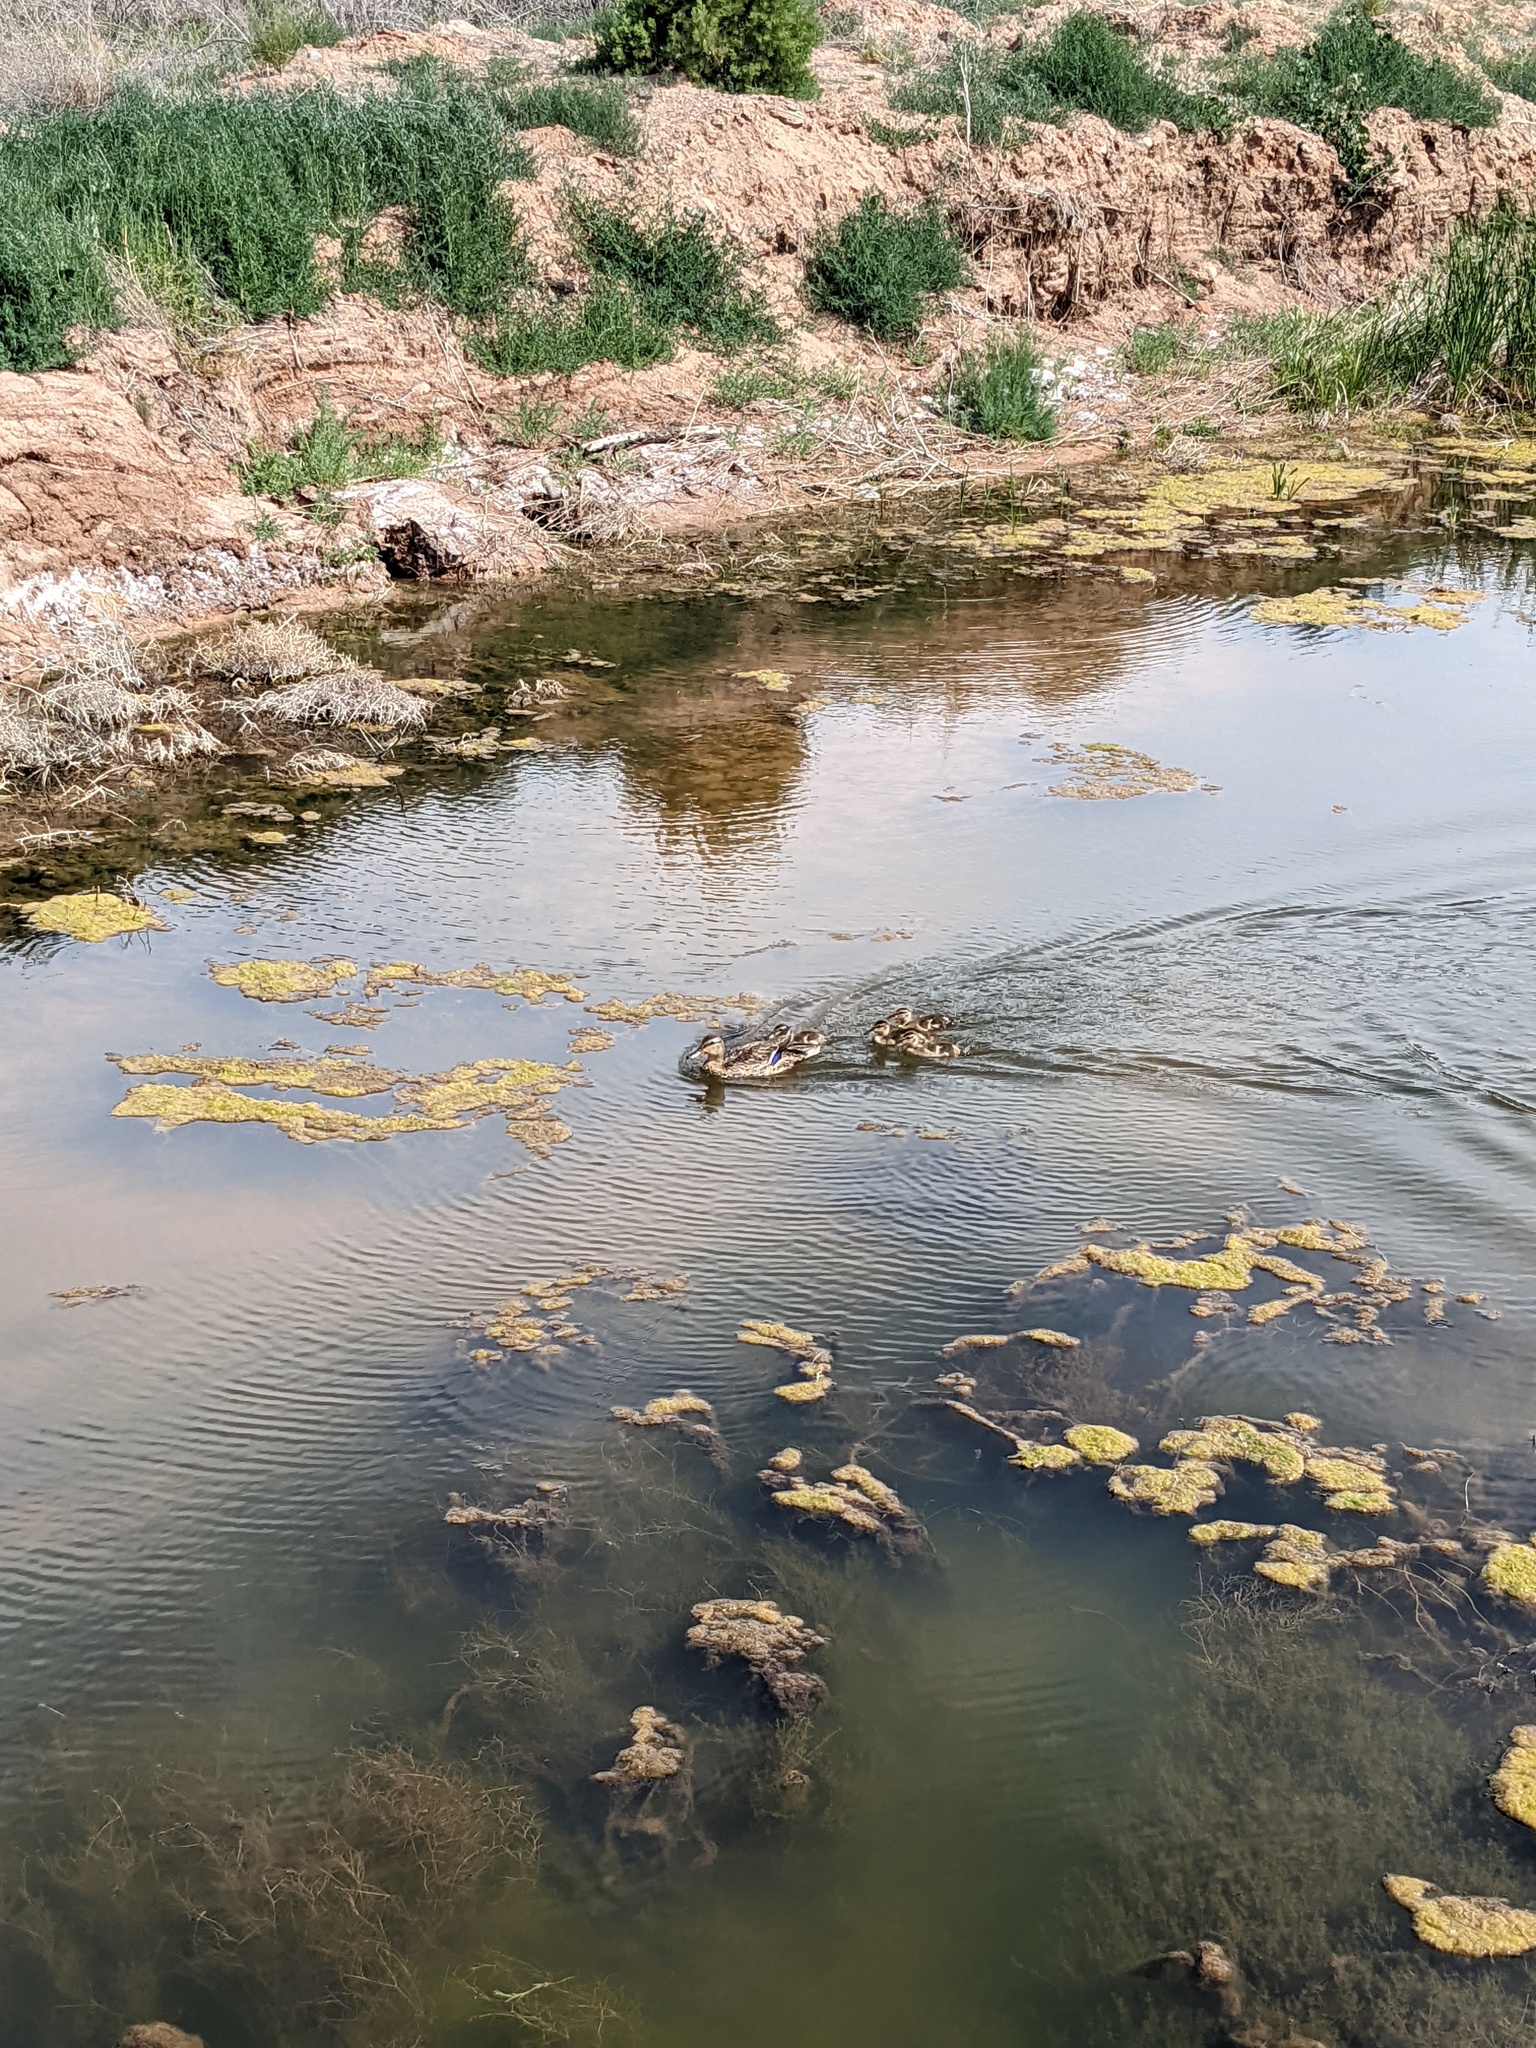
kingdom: Animalia
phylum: Chordata
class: Aves
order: Anseriformes
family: Anatidae
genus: Anas
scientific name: Anas platyrhynchos
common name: Mallard
